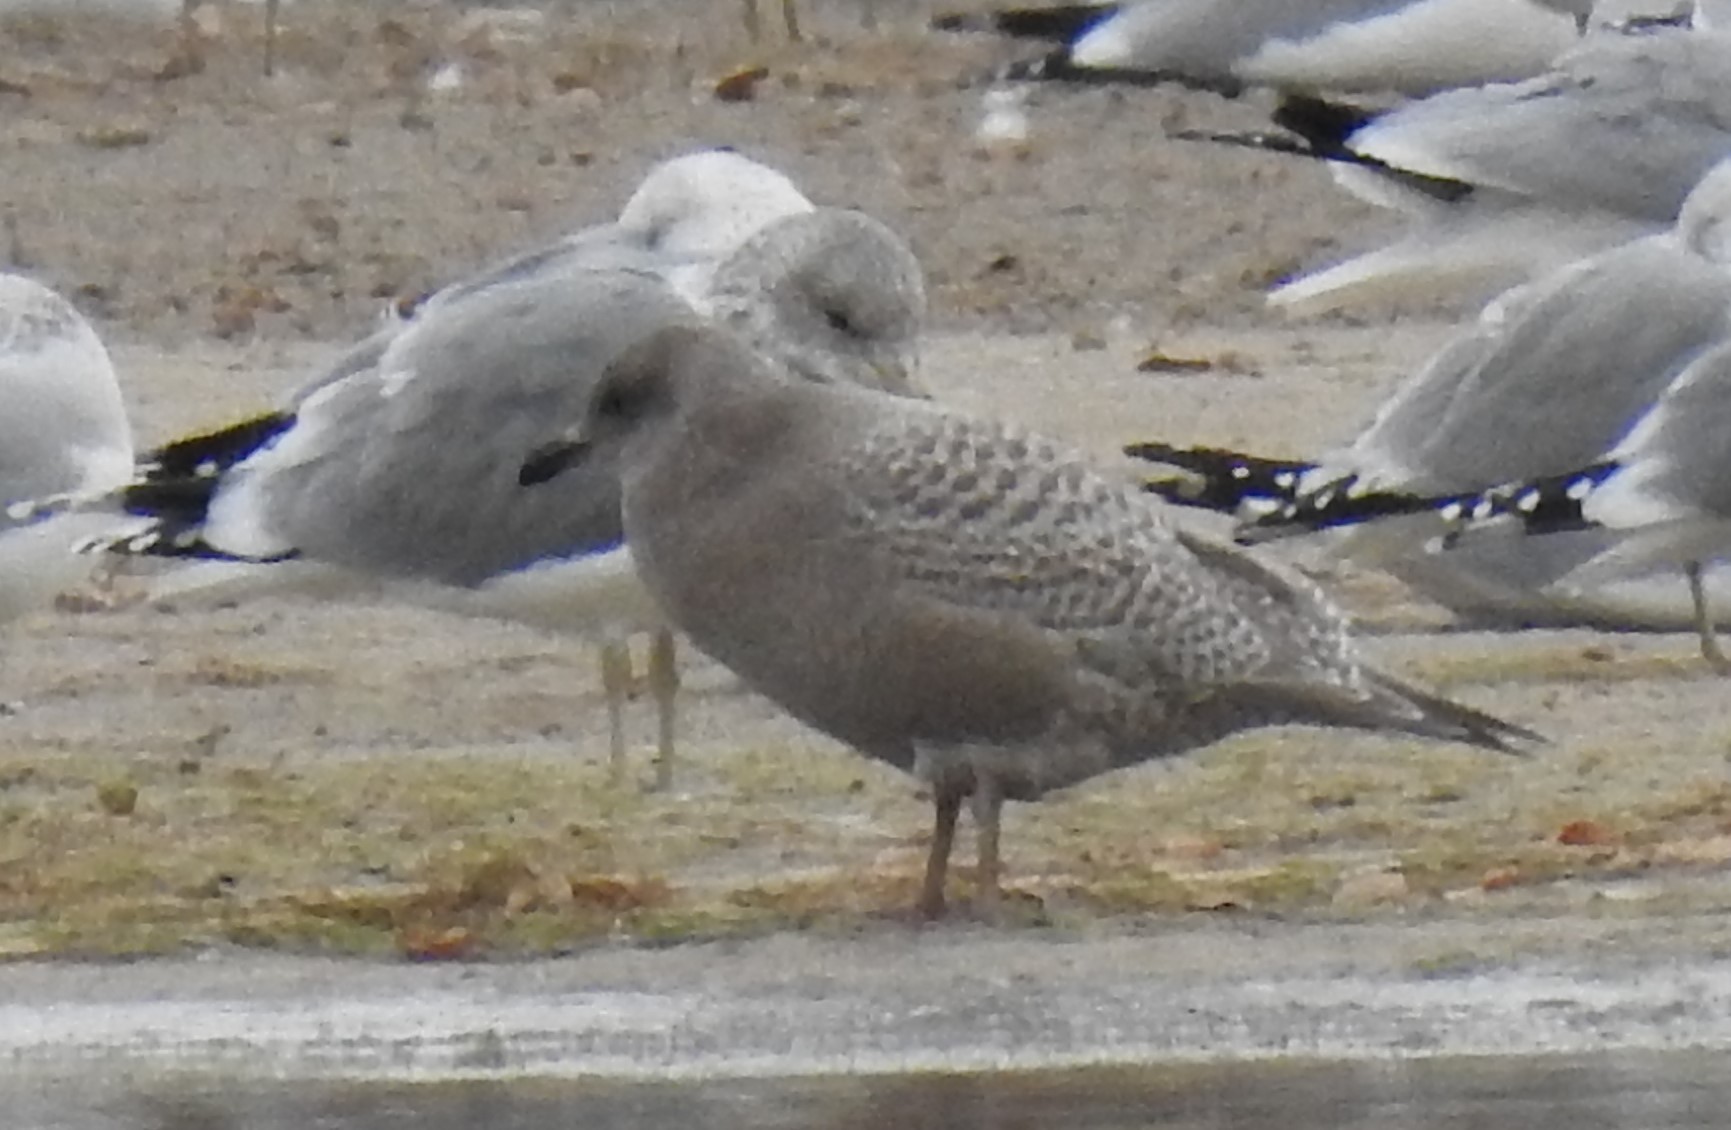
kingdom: Animalia
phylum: Chordata
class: Aves
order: Charadriiformes
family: Laridae
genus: Larus
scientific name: Larus glaucoides
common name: Iceland gull
